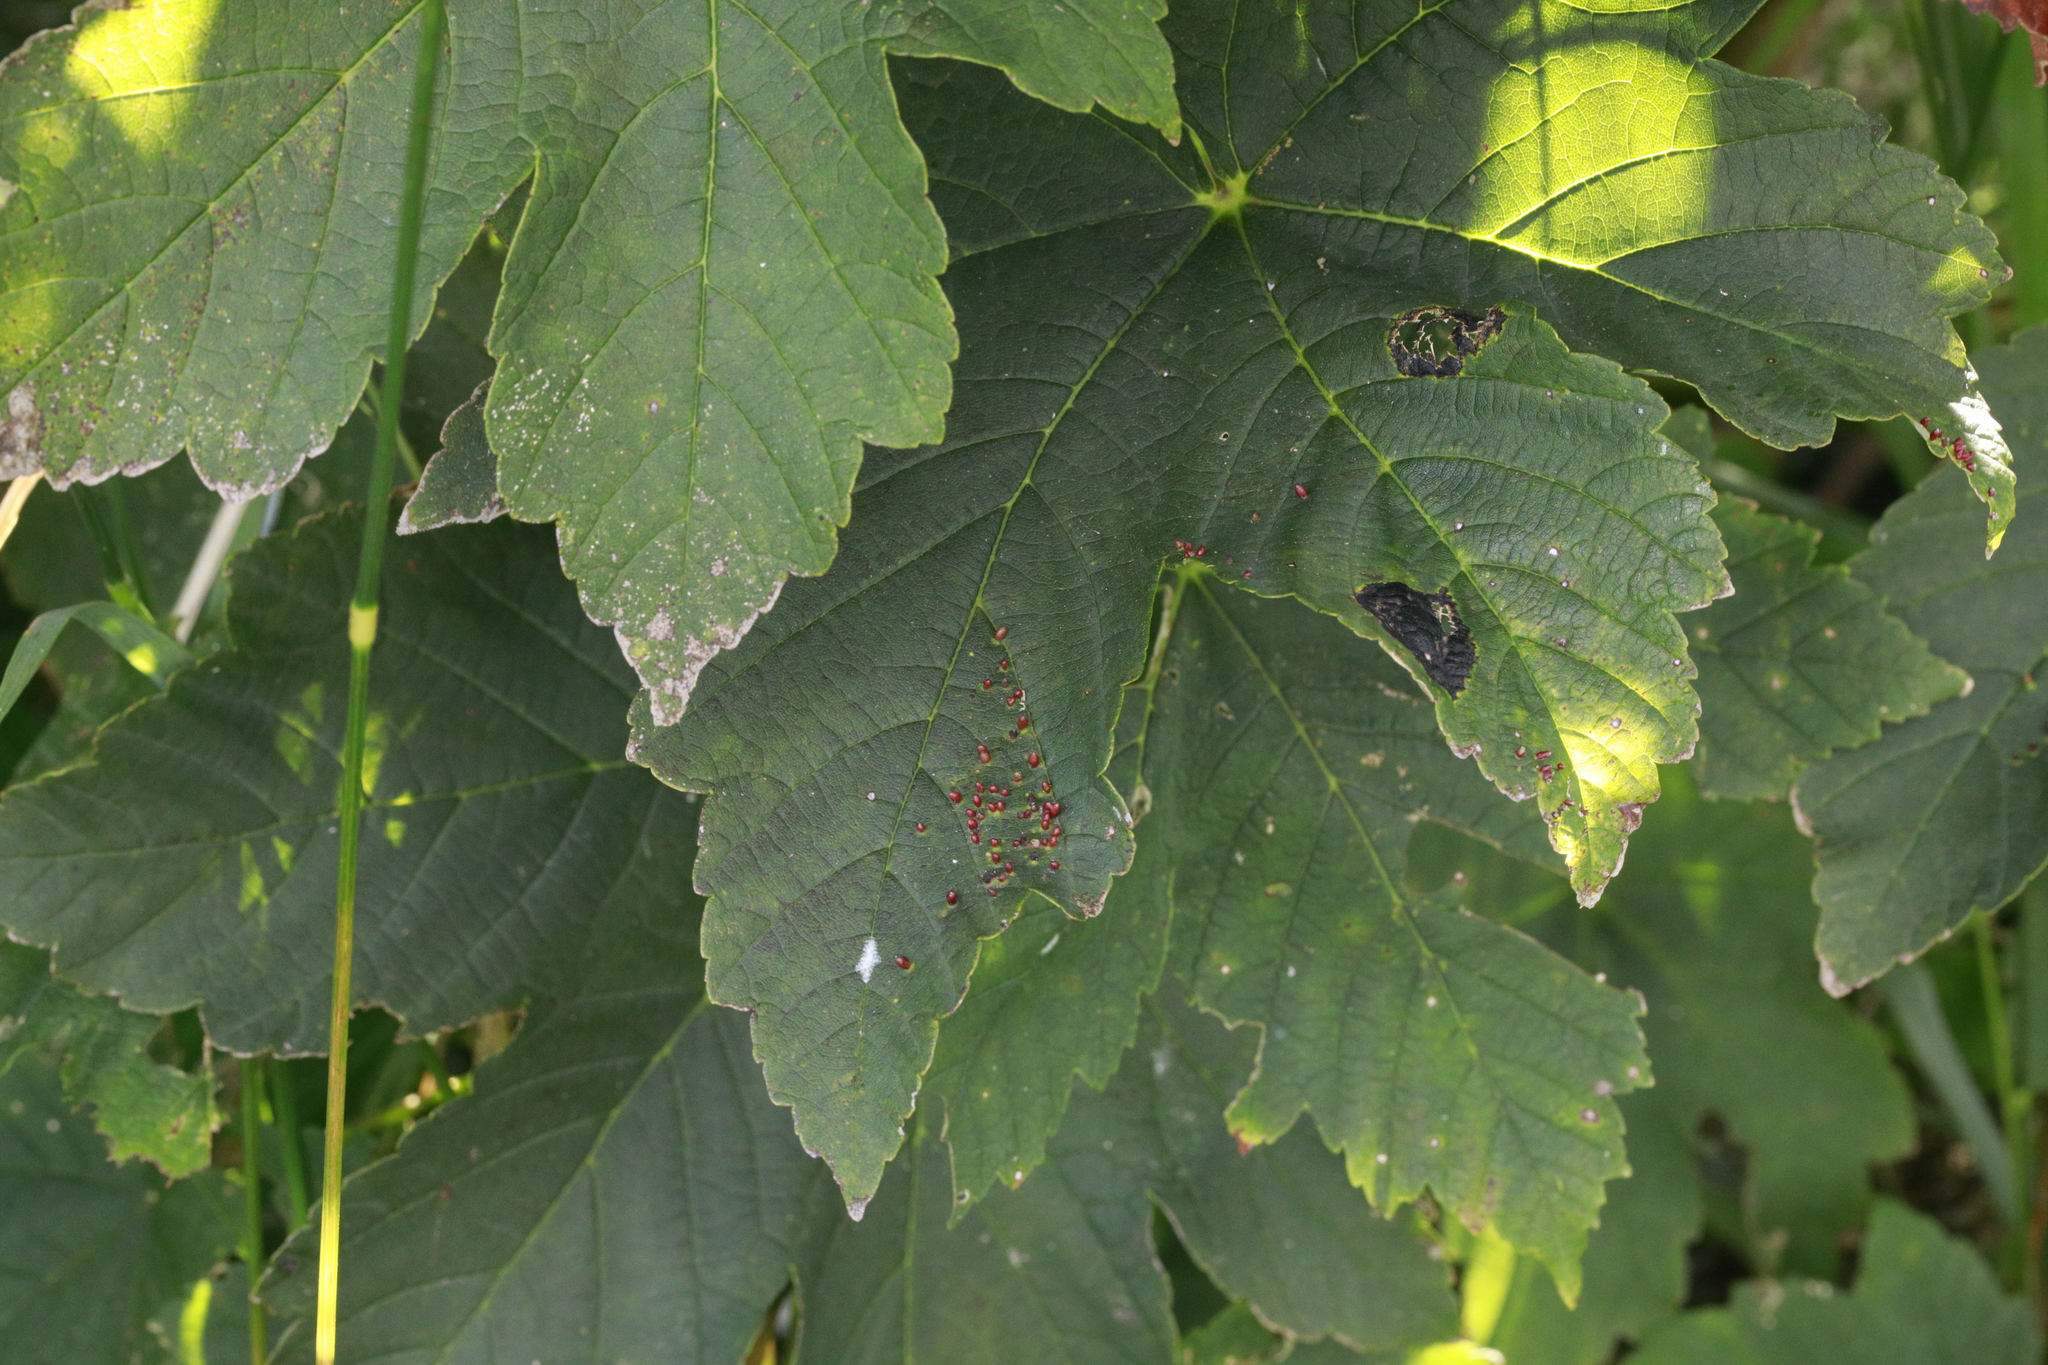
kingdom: Animalia
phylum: Arthropoda
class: Arachnida
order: Trombidiformes
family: Eriophyidae
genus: Aceria
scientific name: Aceria cephaloneus
